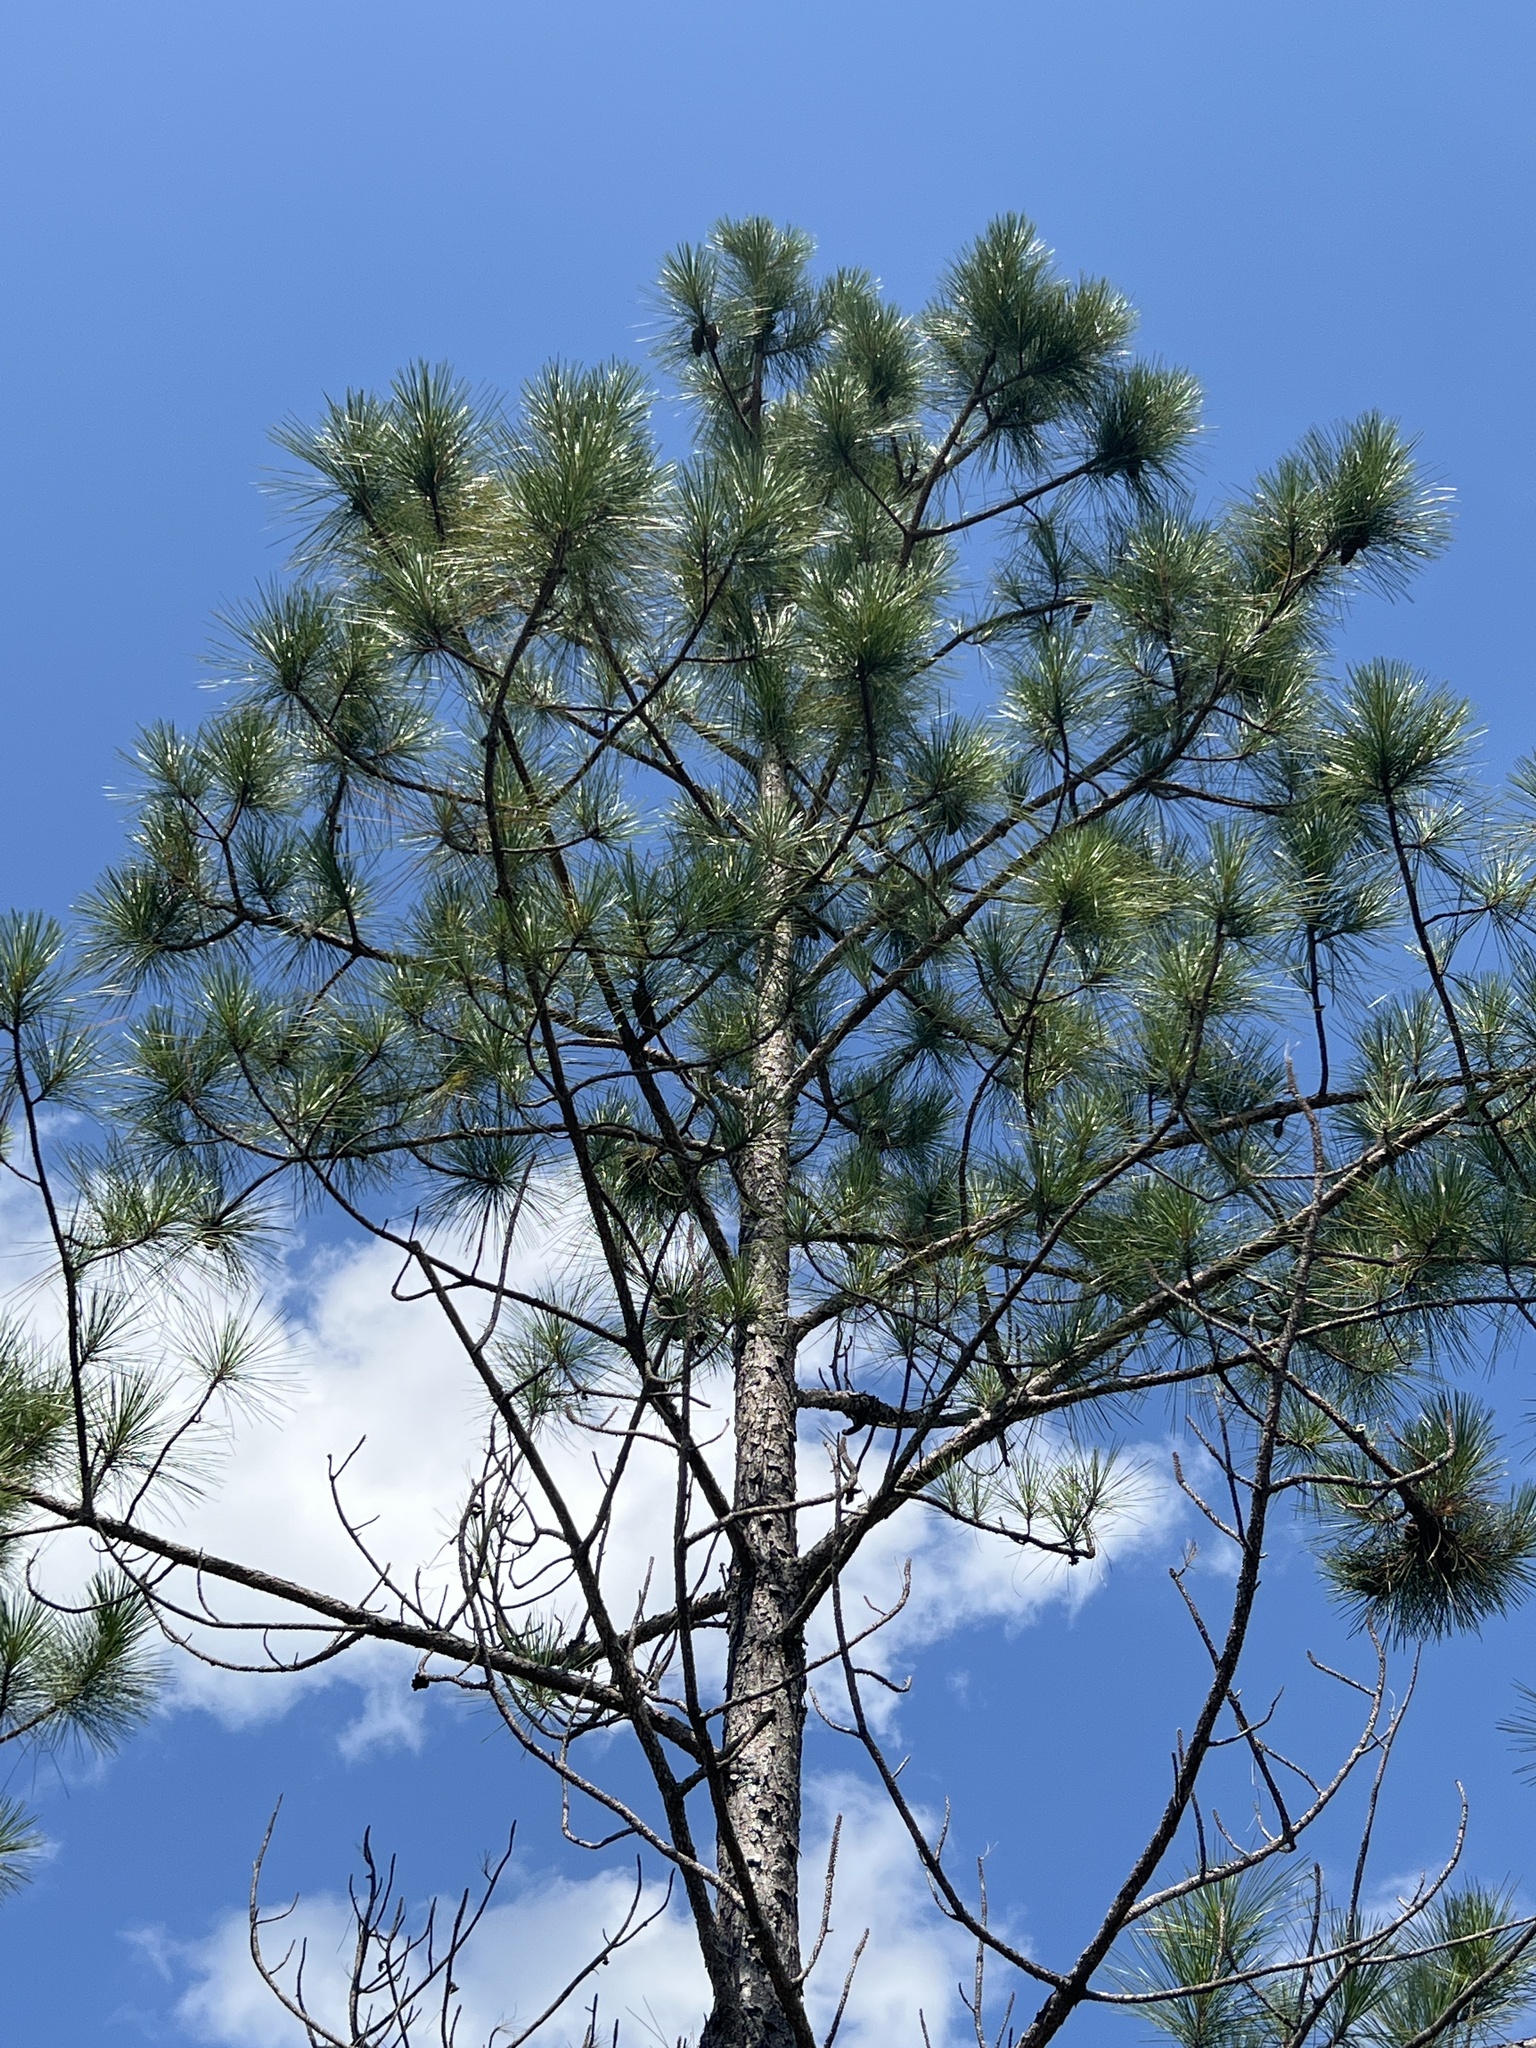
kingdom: Plantae
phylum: Tracheophyta
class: Pinopsida
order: Pinales
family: Pinaceae
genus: Pinus
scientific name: Pinus elliottii
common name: Slash pine
